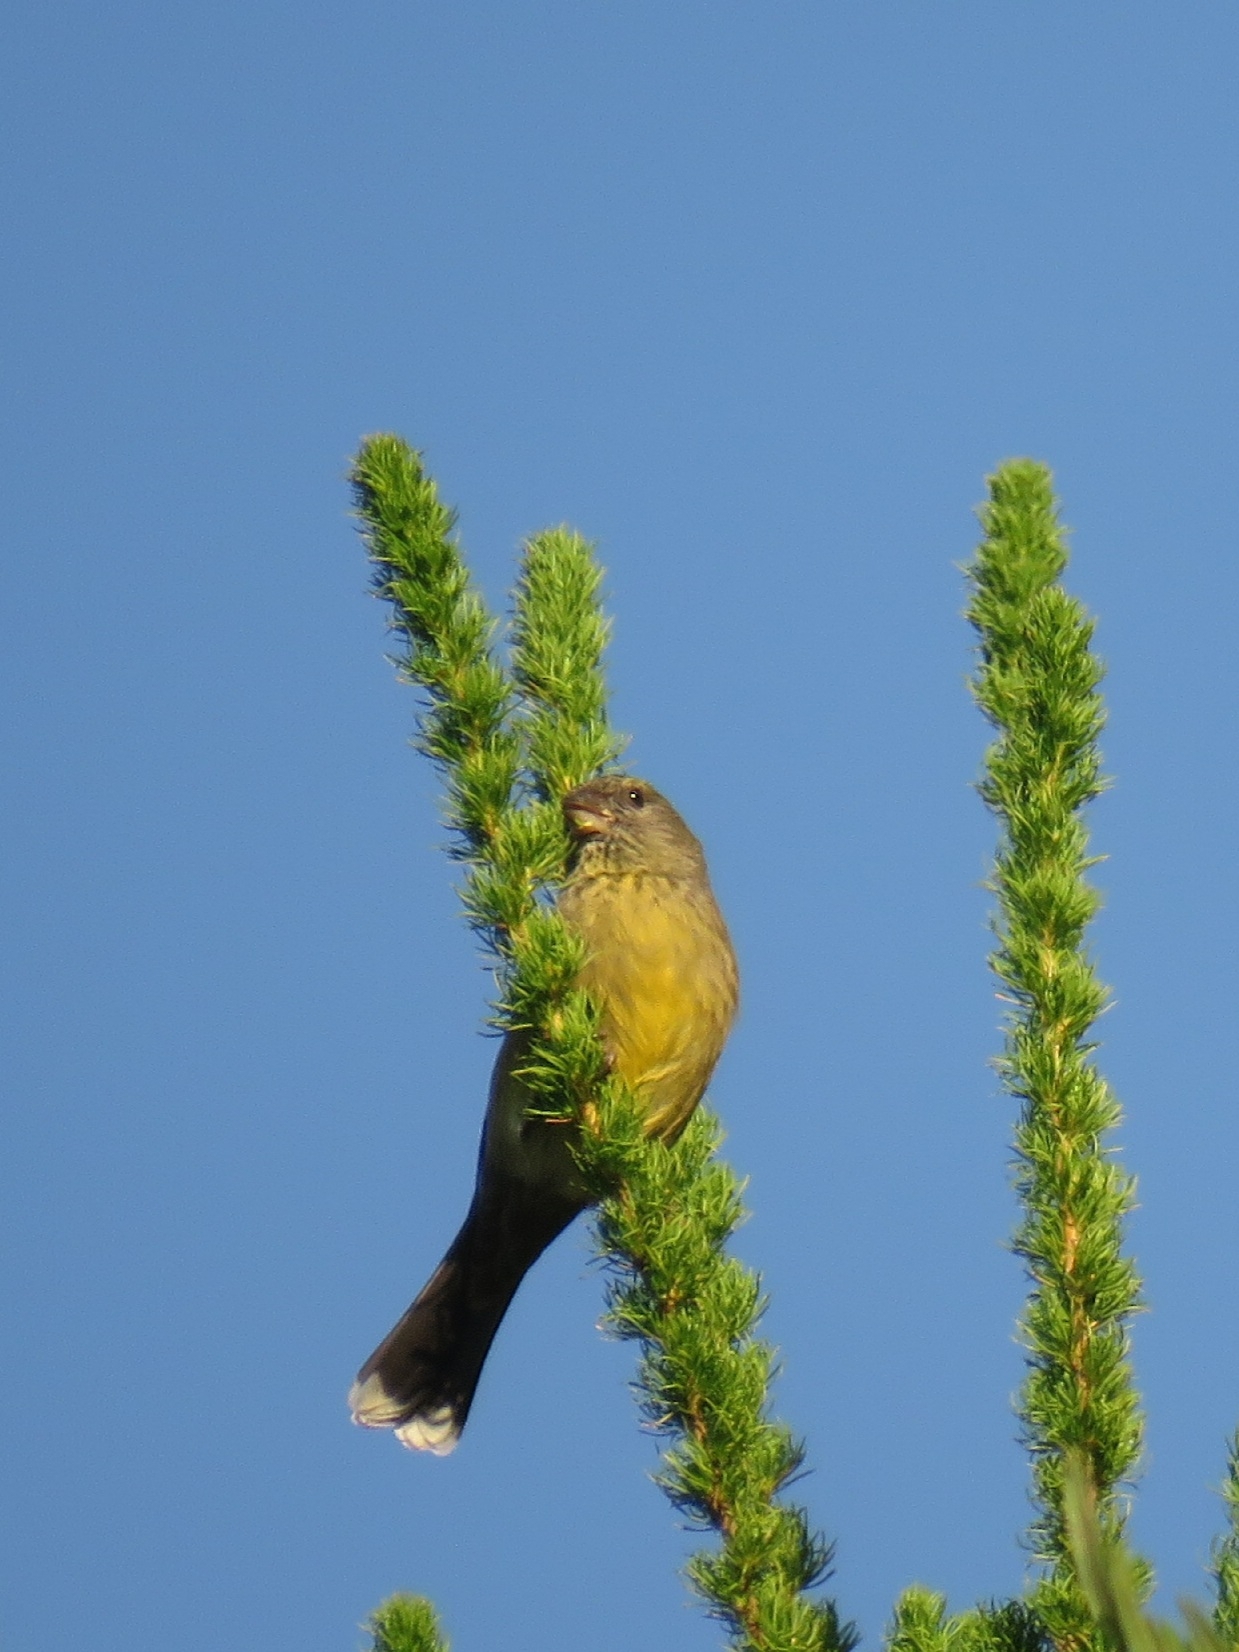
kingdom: Animalia
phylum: Chordata
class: Aves
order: Passeriformes
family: Fringillidae
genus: Crithagra
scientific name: Crithagra totta
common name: Cape siskin
